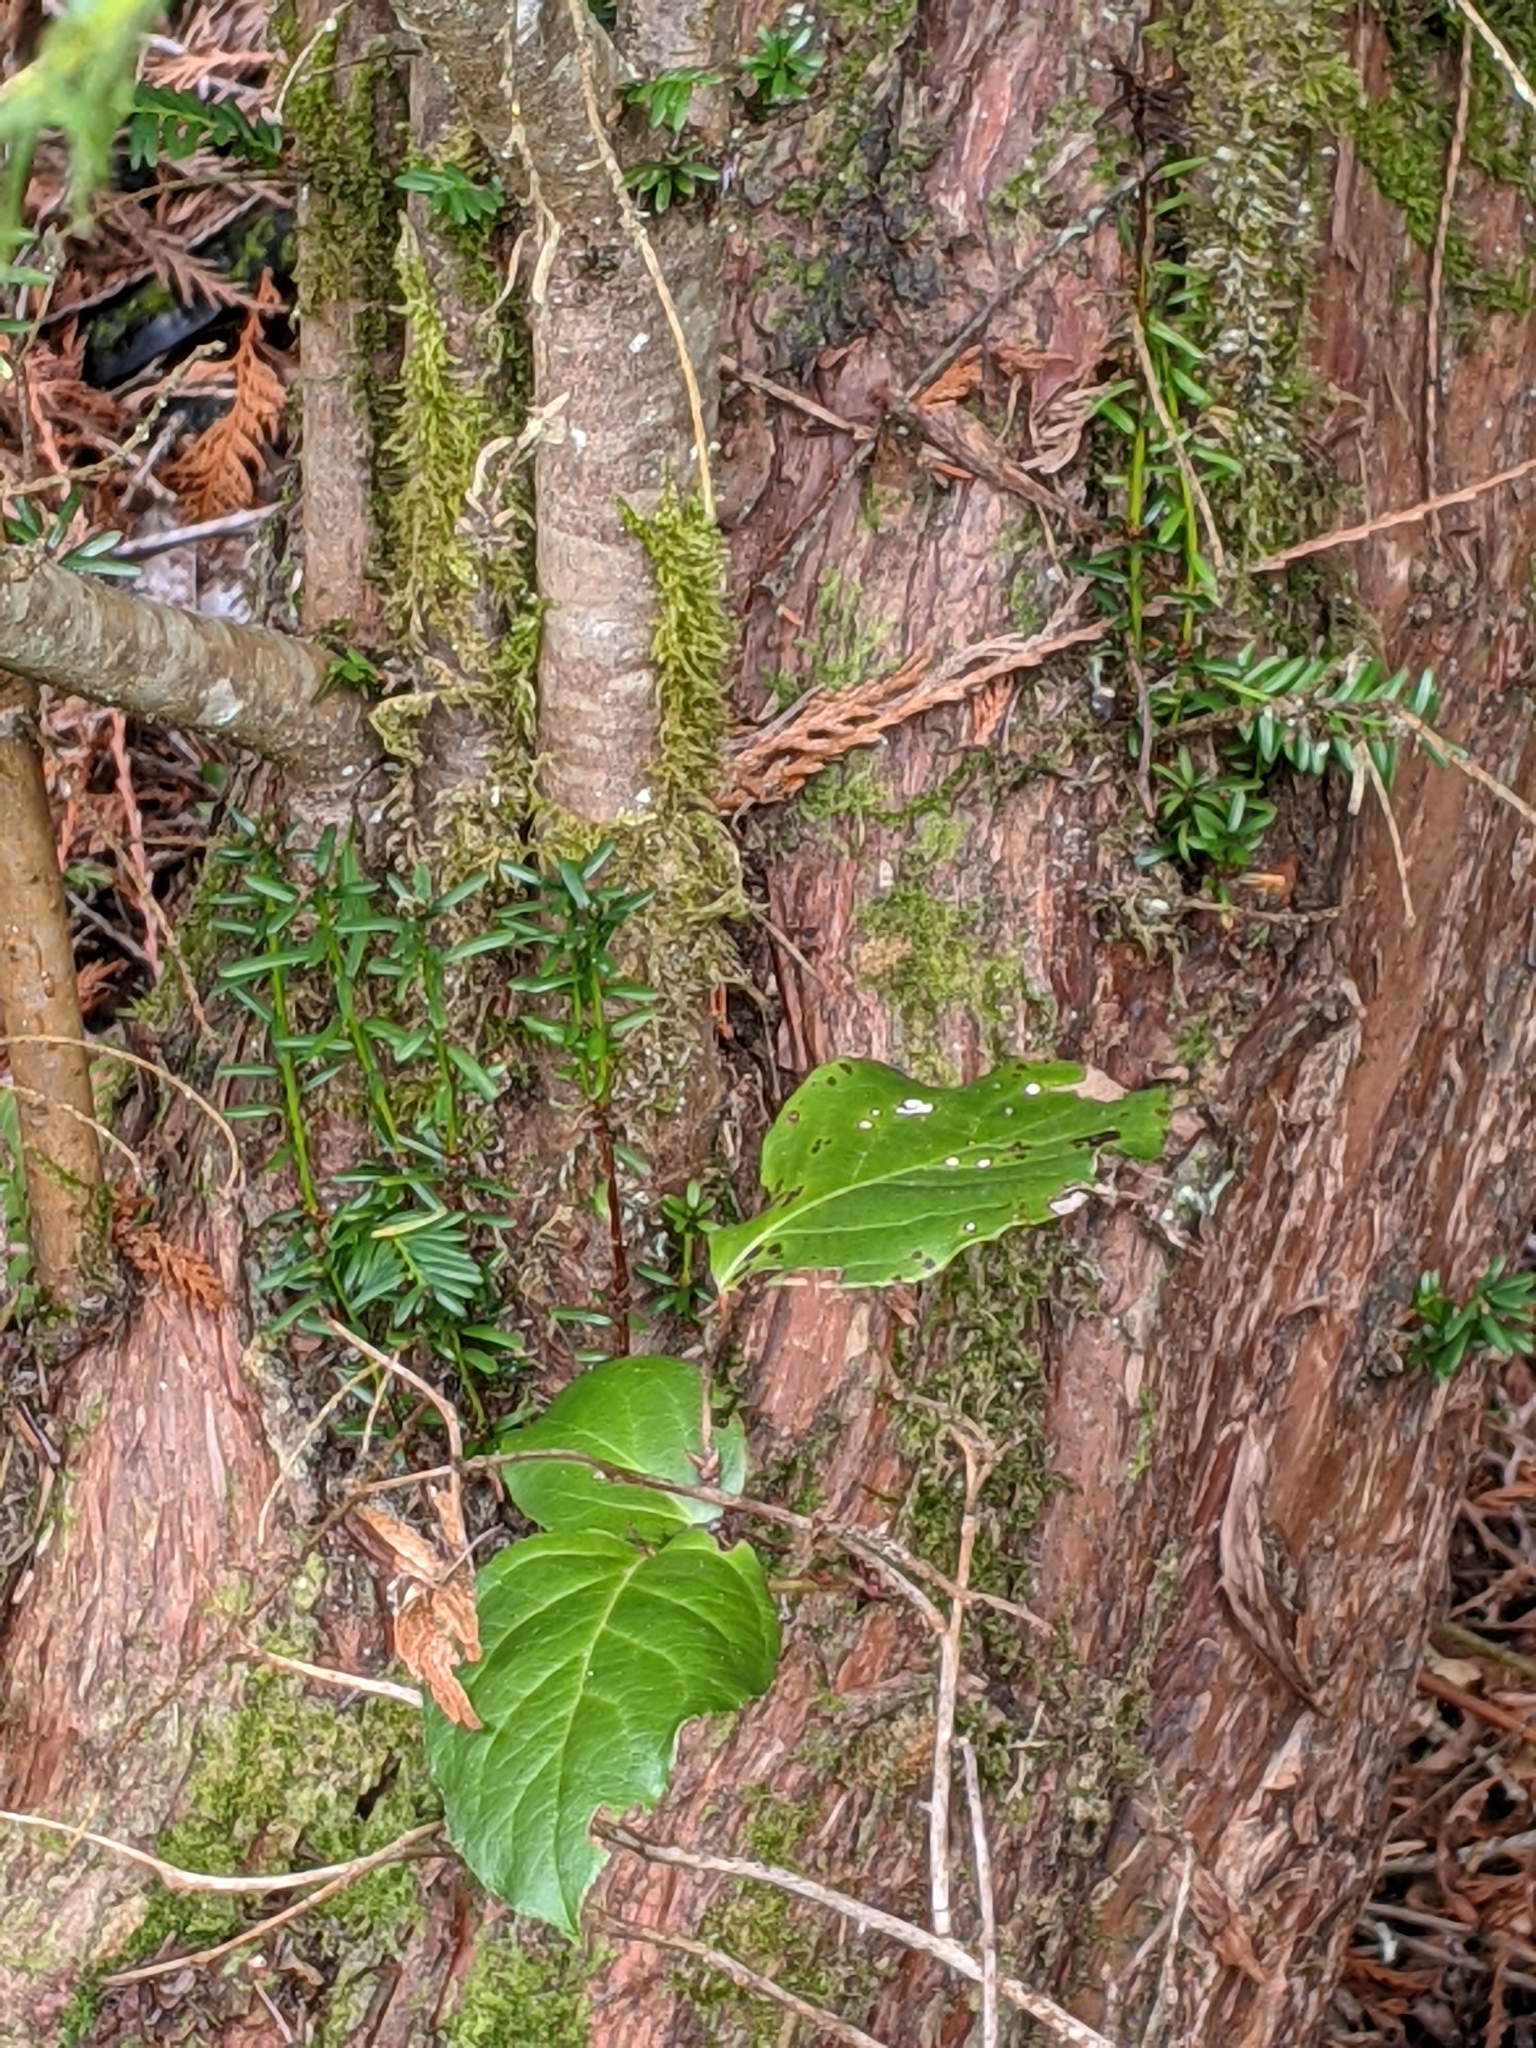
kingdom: Plantae
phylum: Tracheophyta
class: Pinopsida
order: Pinales
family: Taxaceae
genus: Taxus
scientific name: Taxus brevifolia
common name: Pacific yew
